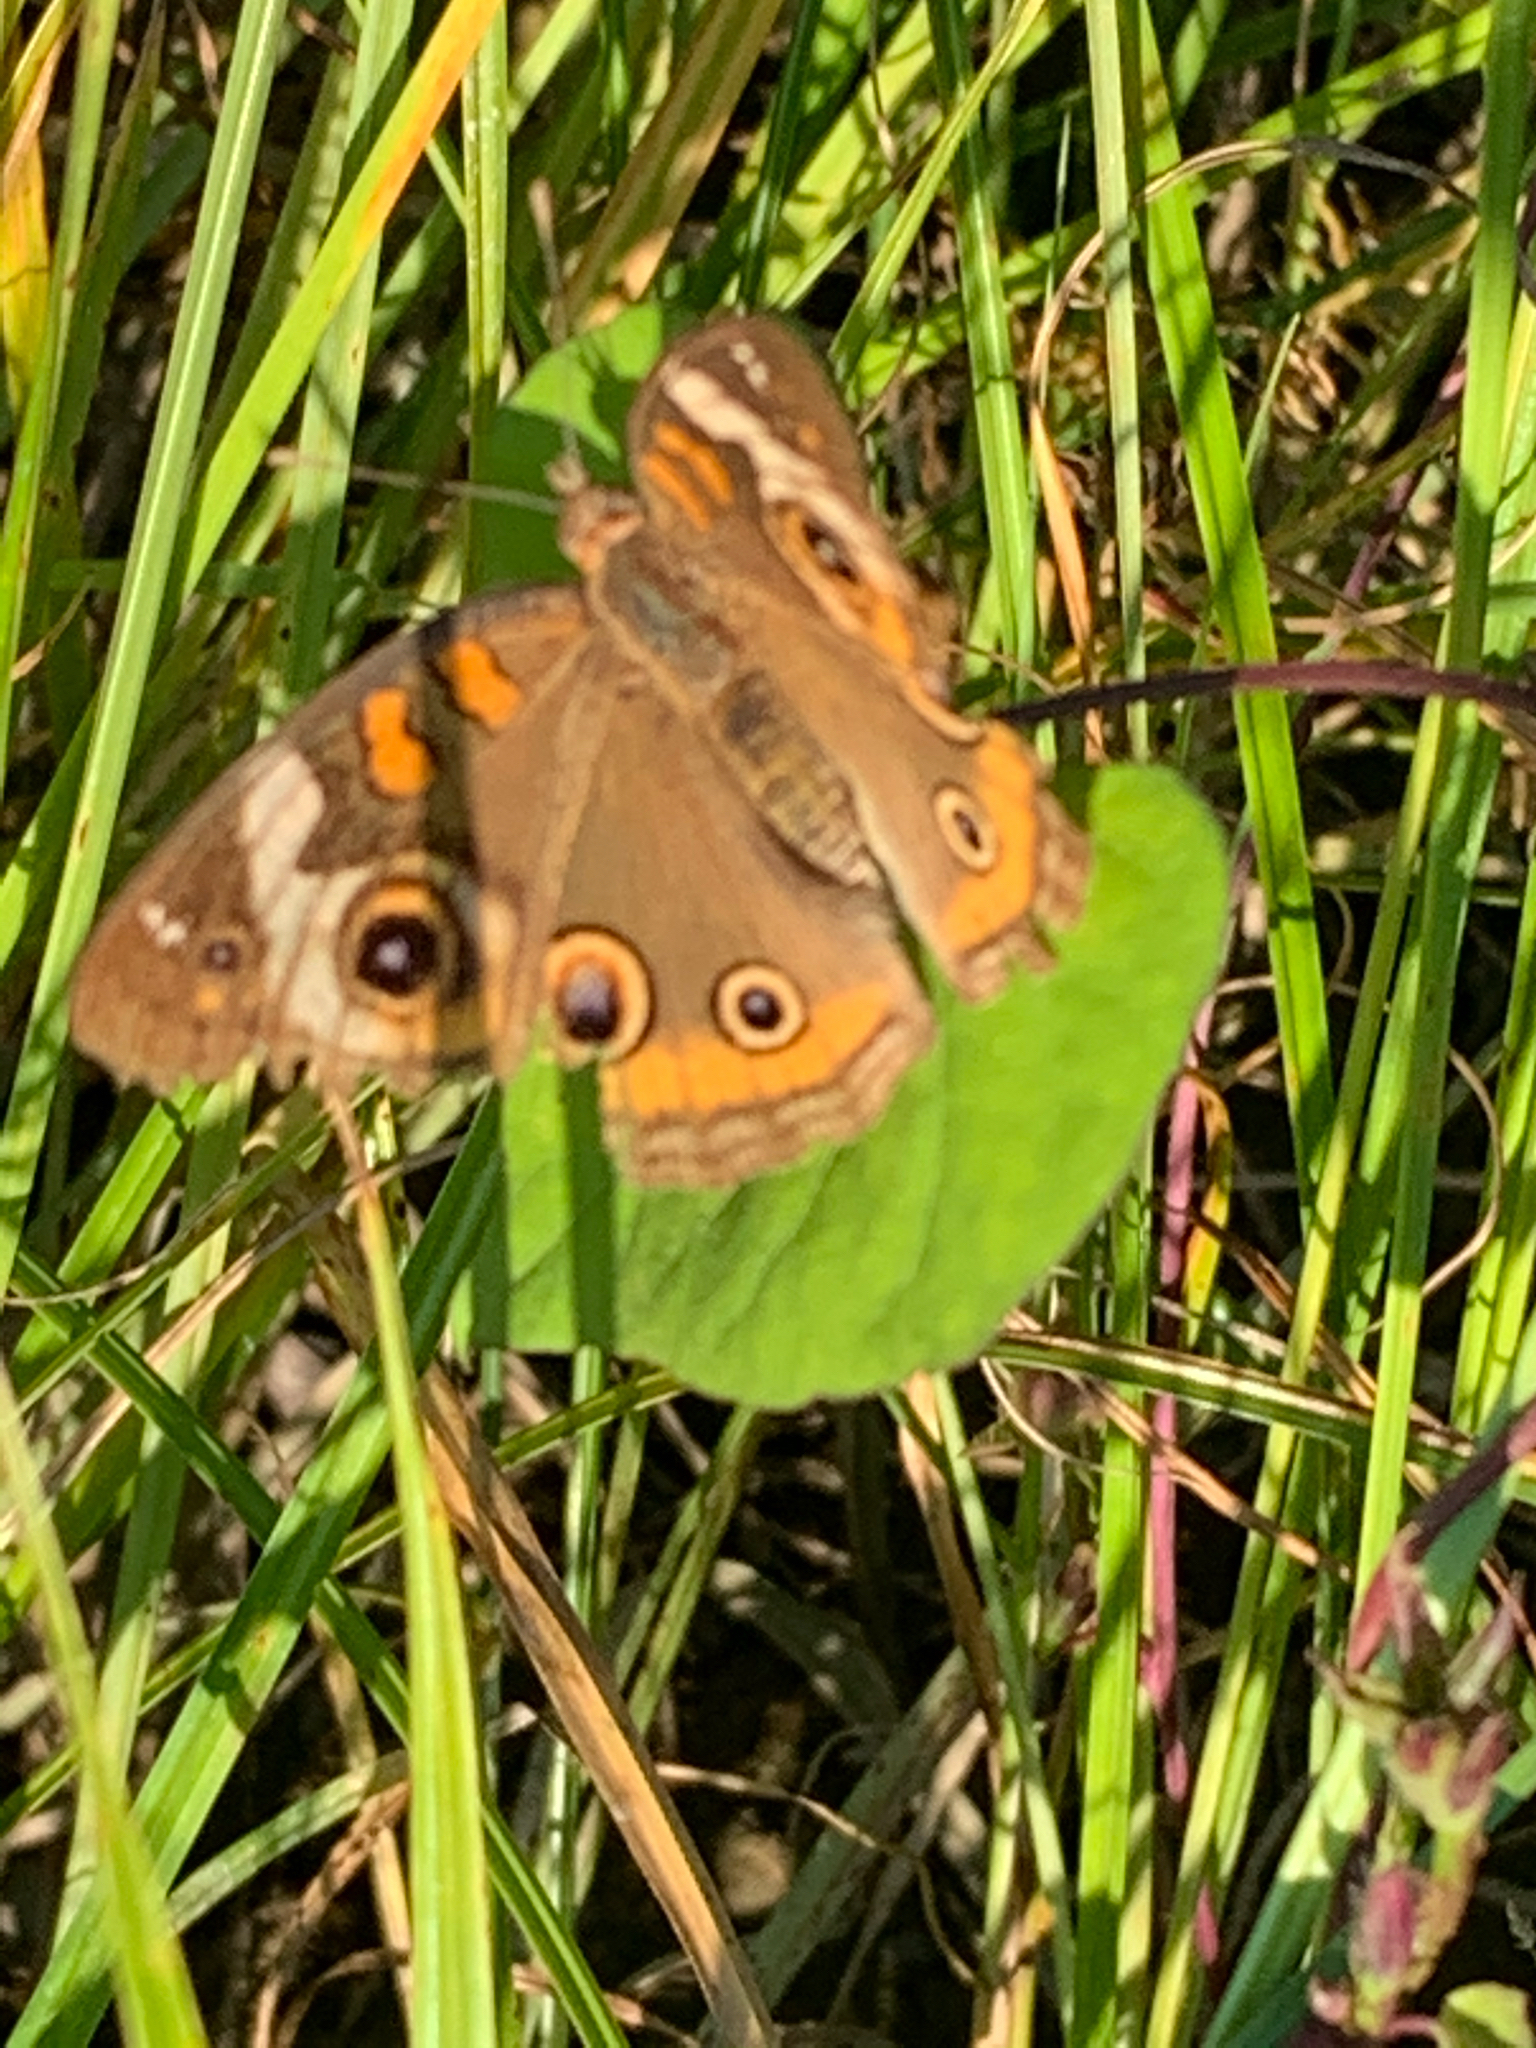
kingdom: Animalia
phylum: Arthropoda
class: Insecta
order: Lepidoptera
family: Nymphalidae
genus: Junonia
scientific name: Junonia coenia
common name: Common buckeye
